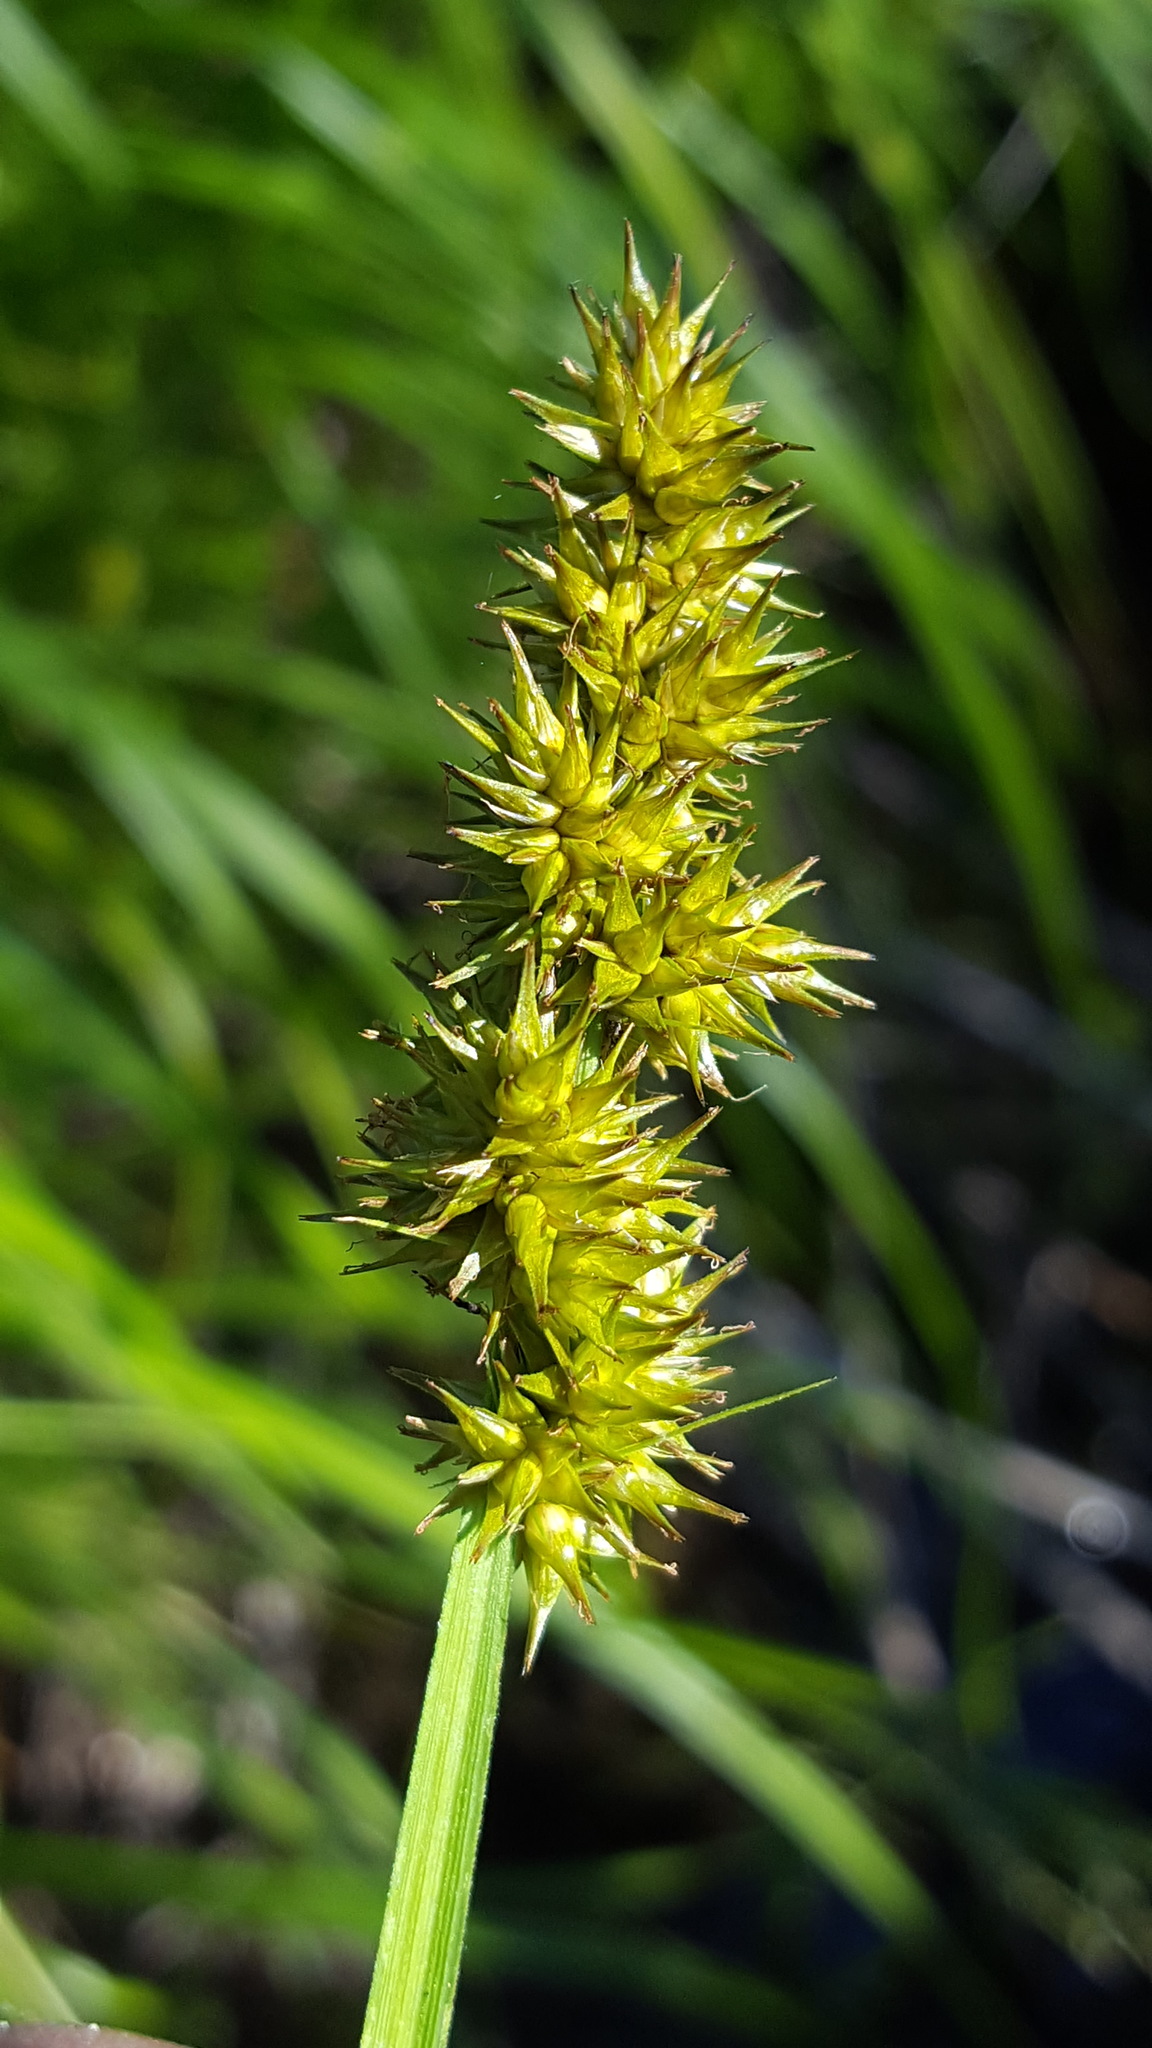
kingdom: Plantae
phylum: Tracheophyta
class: Liliopsida
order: Poales
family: Cyperaceae
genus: Carex
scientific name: Carex stipata
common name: Awl-fruited sedge
